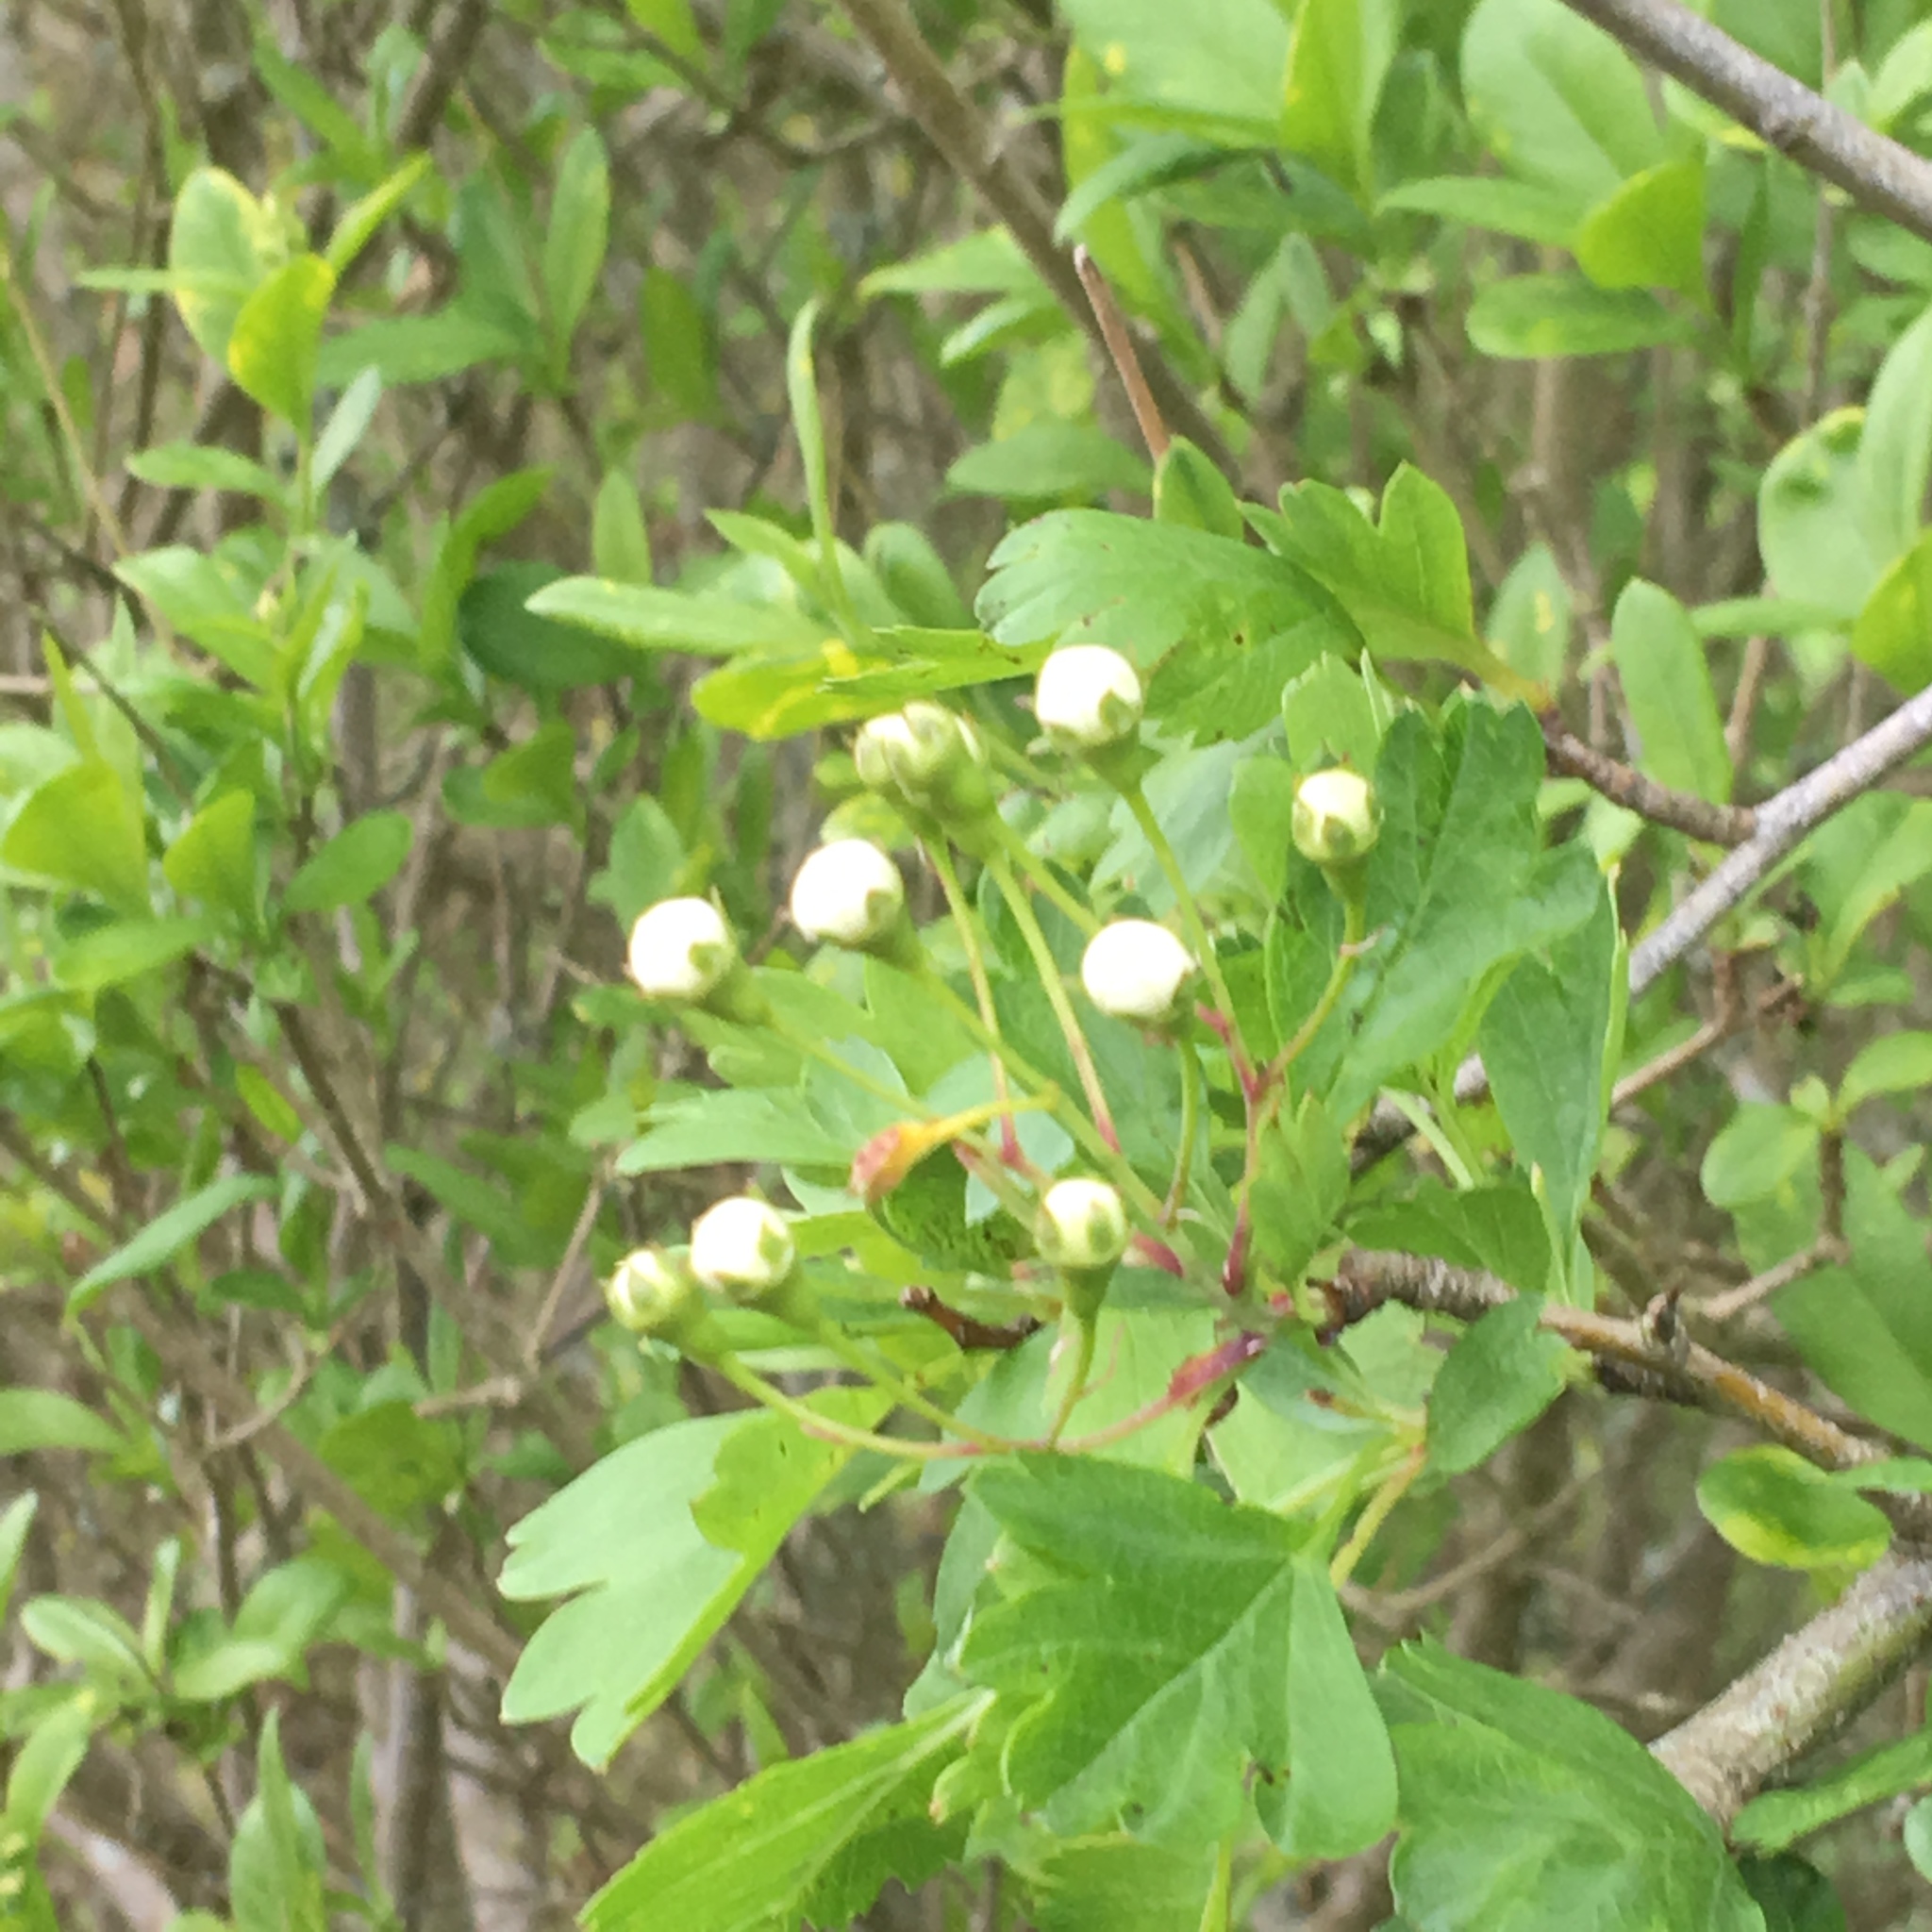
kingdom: Plantae
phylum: Tracheophyta
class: Magnoliopsida
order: Rosales
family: Rosaceae
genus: Crataegus
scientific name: Crataegus monogyna
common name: Hawthorn
